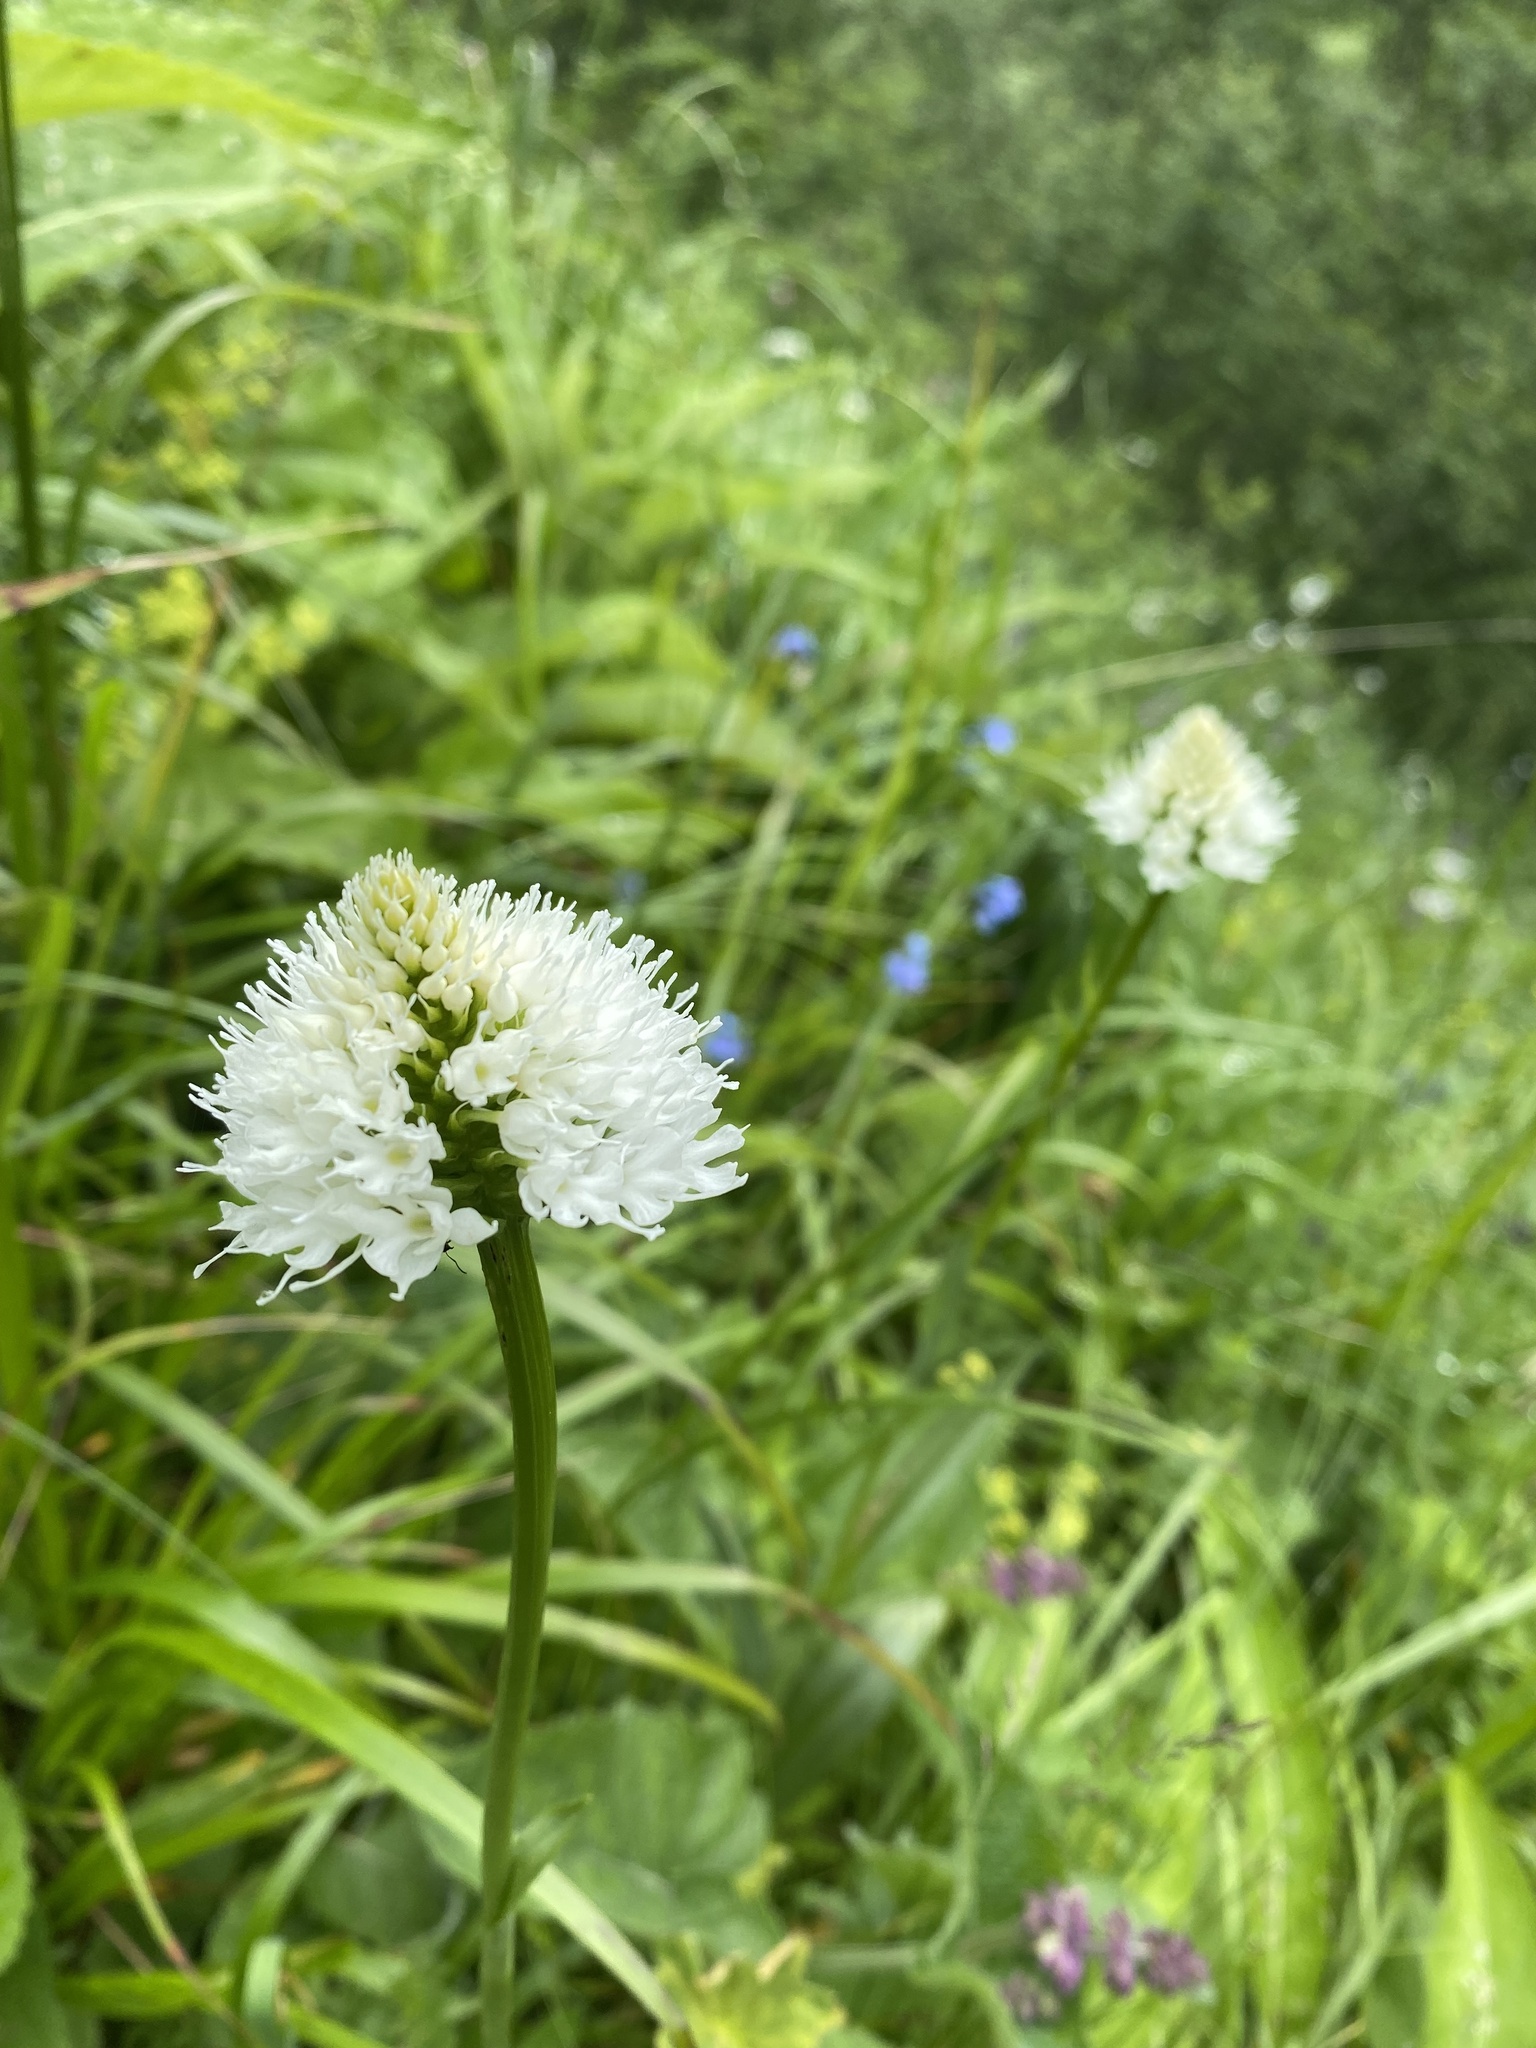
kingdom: Plantae
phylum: Tracheophyta
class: Liliopsida
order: Asparagales
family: Orchidaceae
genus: Traunsteinera
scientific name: Traunsteinera sphaerica
